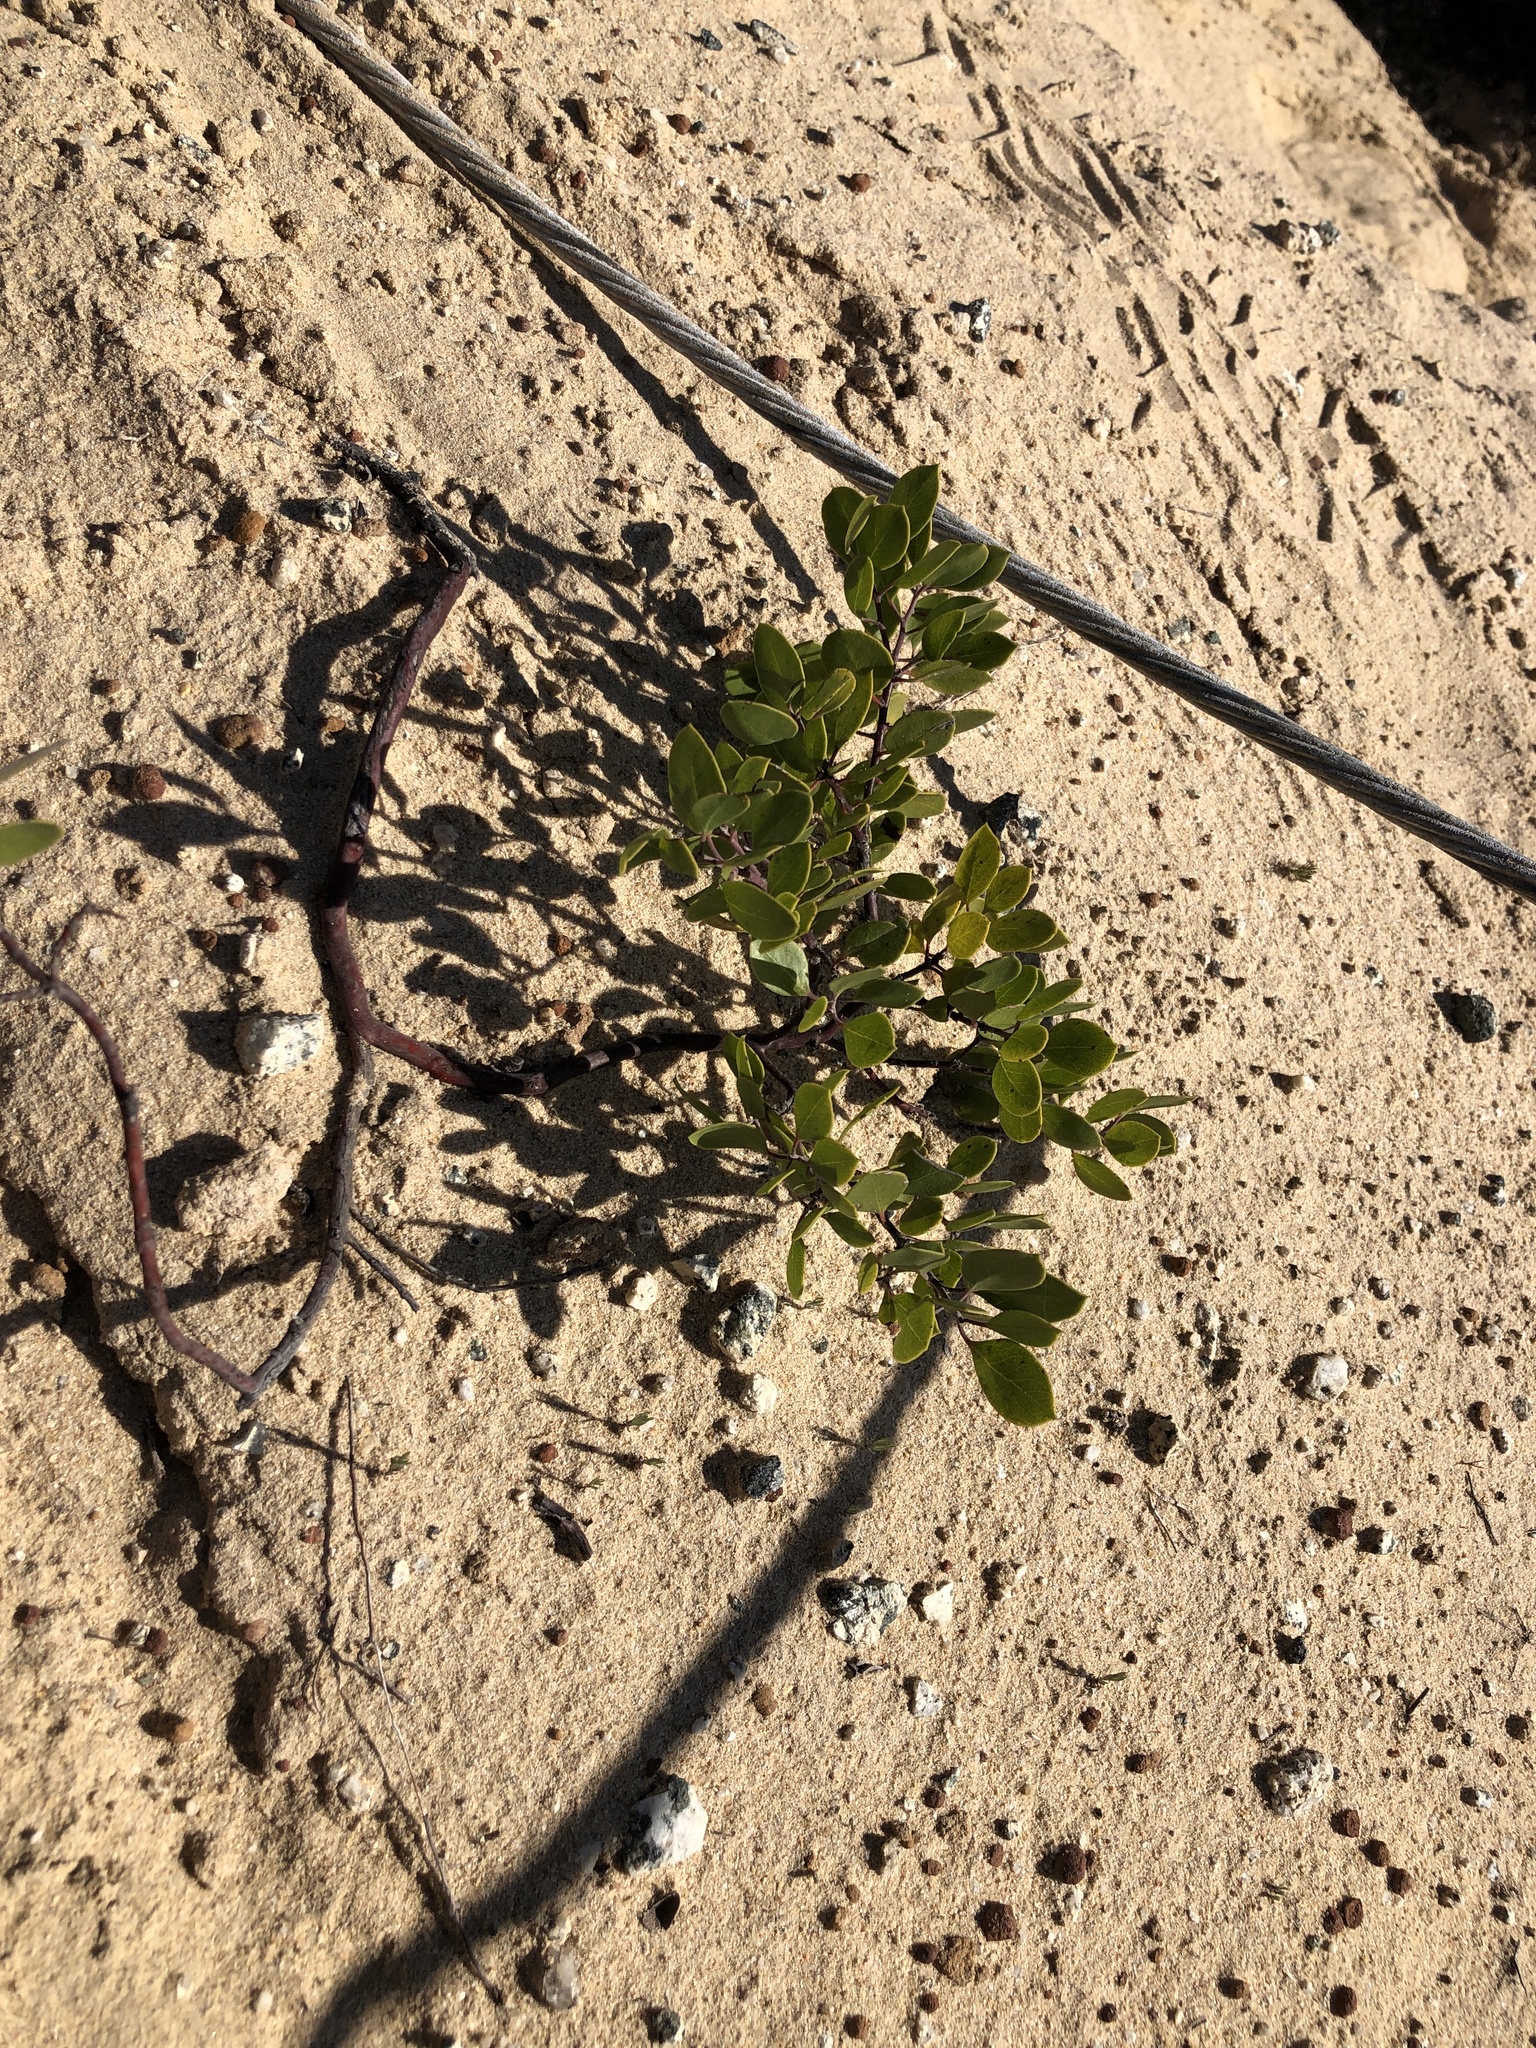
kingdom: Plantae
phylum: Tracheophyta
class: Magnoliopsida
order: Ericales
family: Ericaceae
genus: Arctostaphylos
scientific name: Arctostaphylos hookeri
